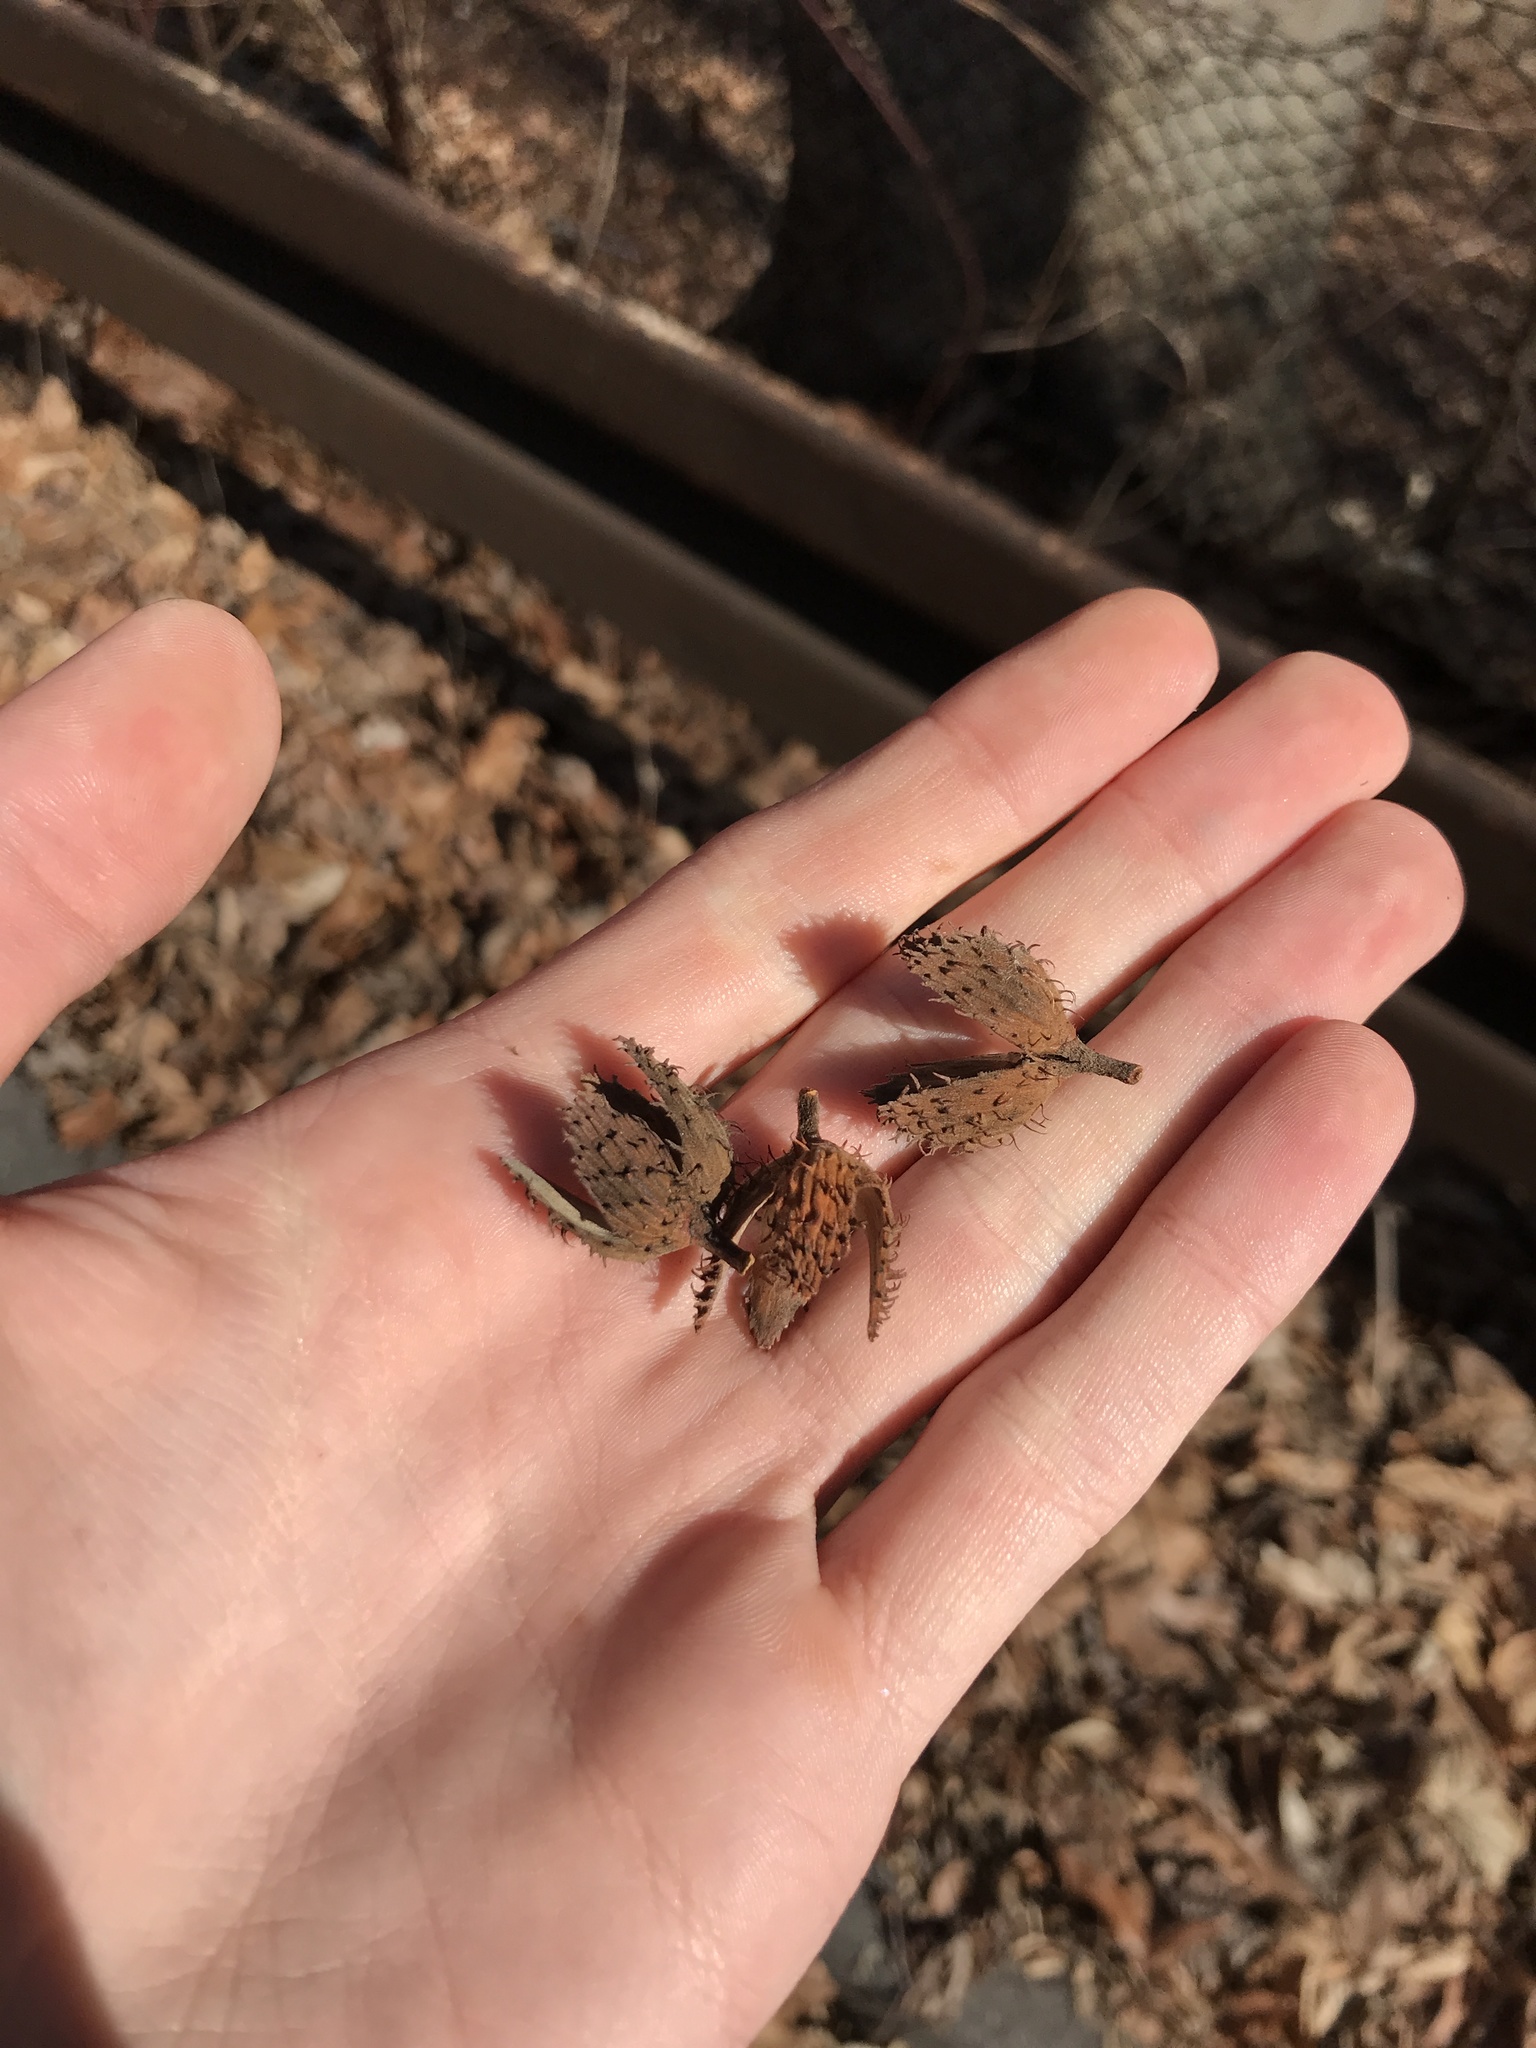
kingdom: Plantae
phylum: Tracheophyta
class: Magnoliopsida
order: Fagales
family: Fagaceae
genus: Fagus
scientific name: Fagus grandifolia
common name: American beech
